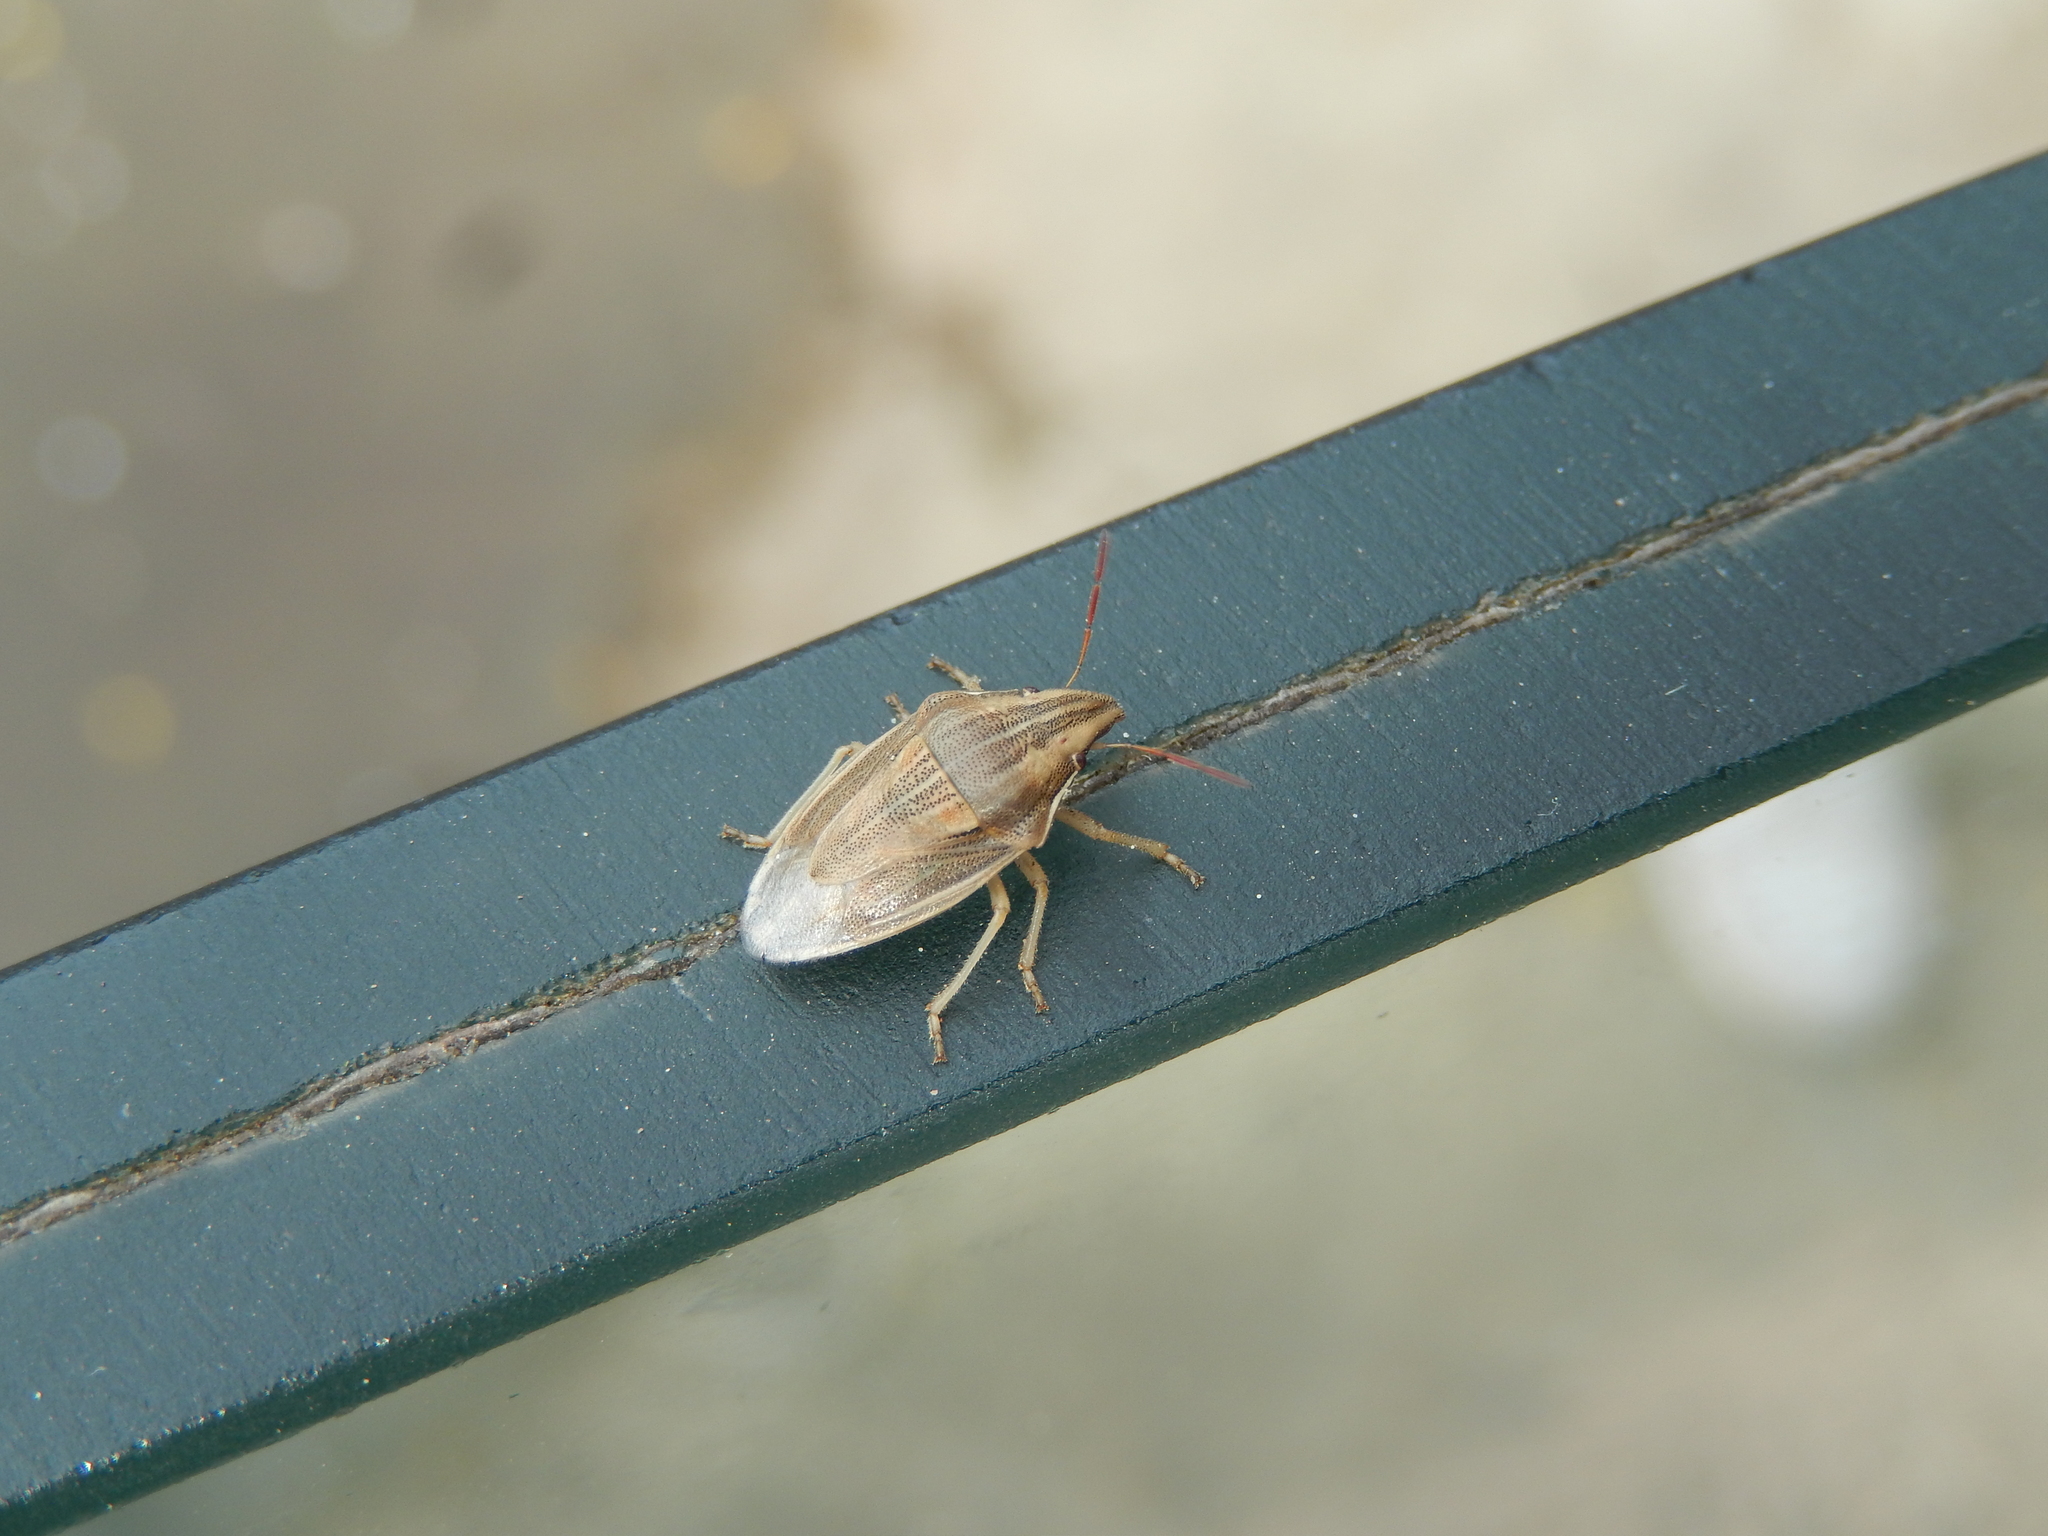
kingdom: Animalia
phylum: Arthropoda
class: Insecta
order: Hemiptera
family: Pentatomidae
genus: Aelia
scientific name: Aelia acuminata
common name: Bishop's mitre
